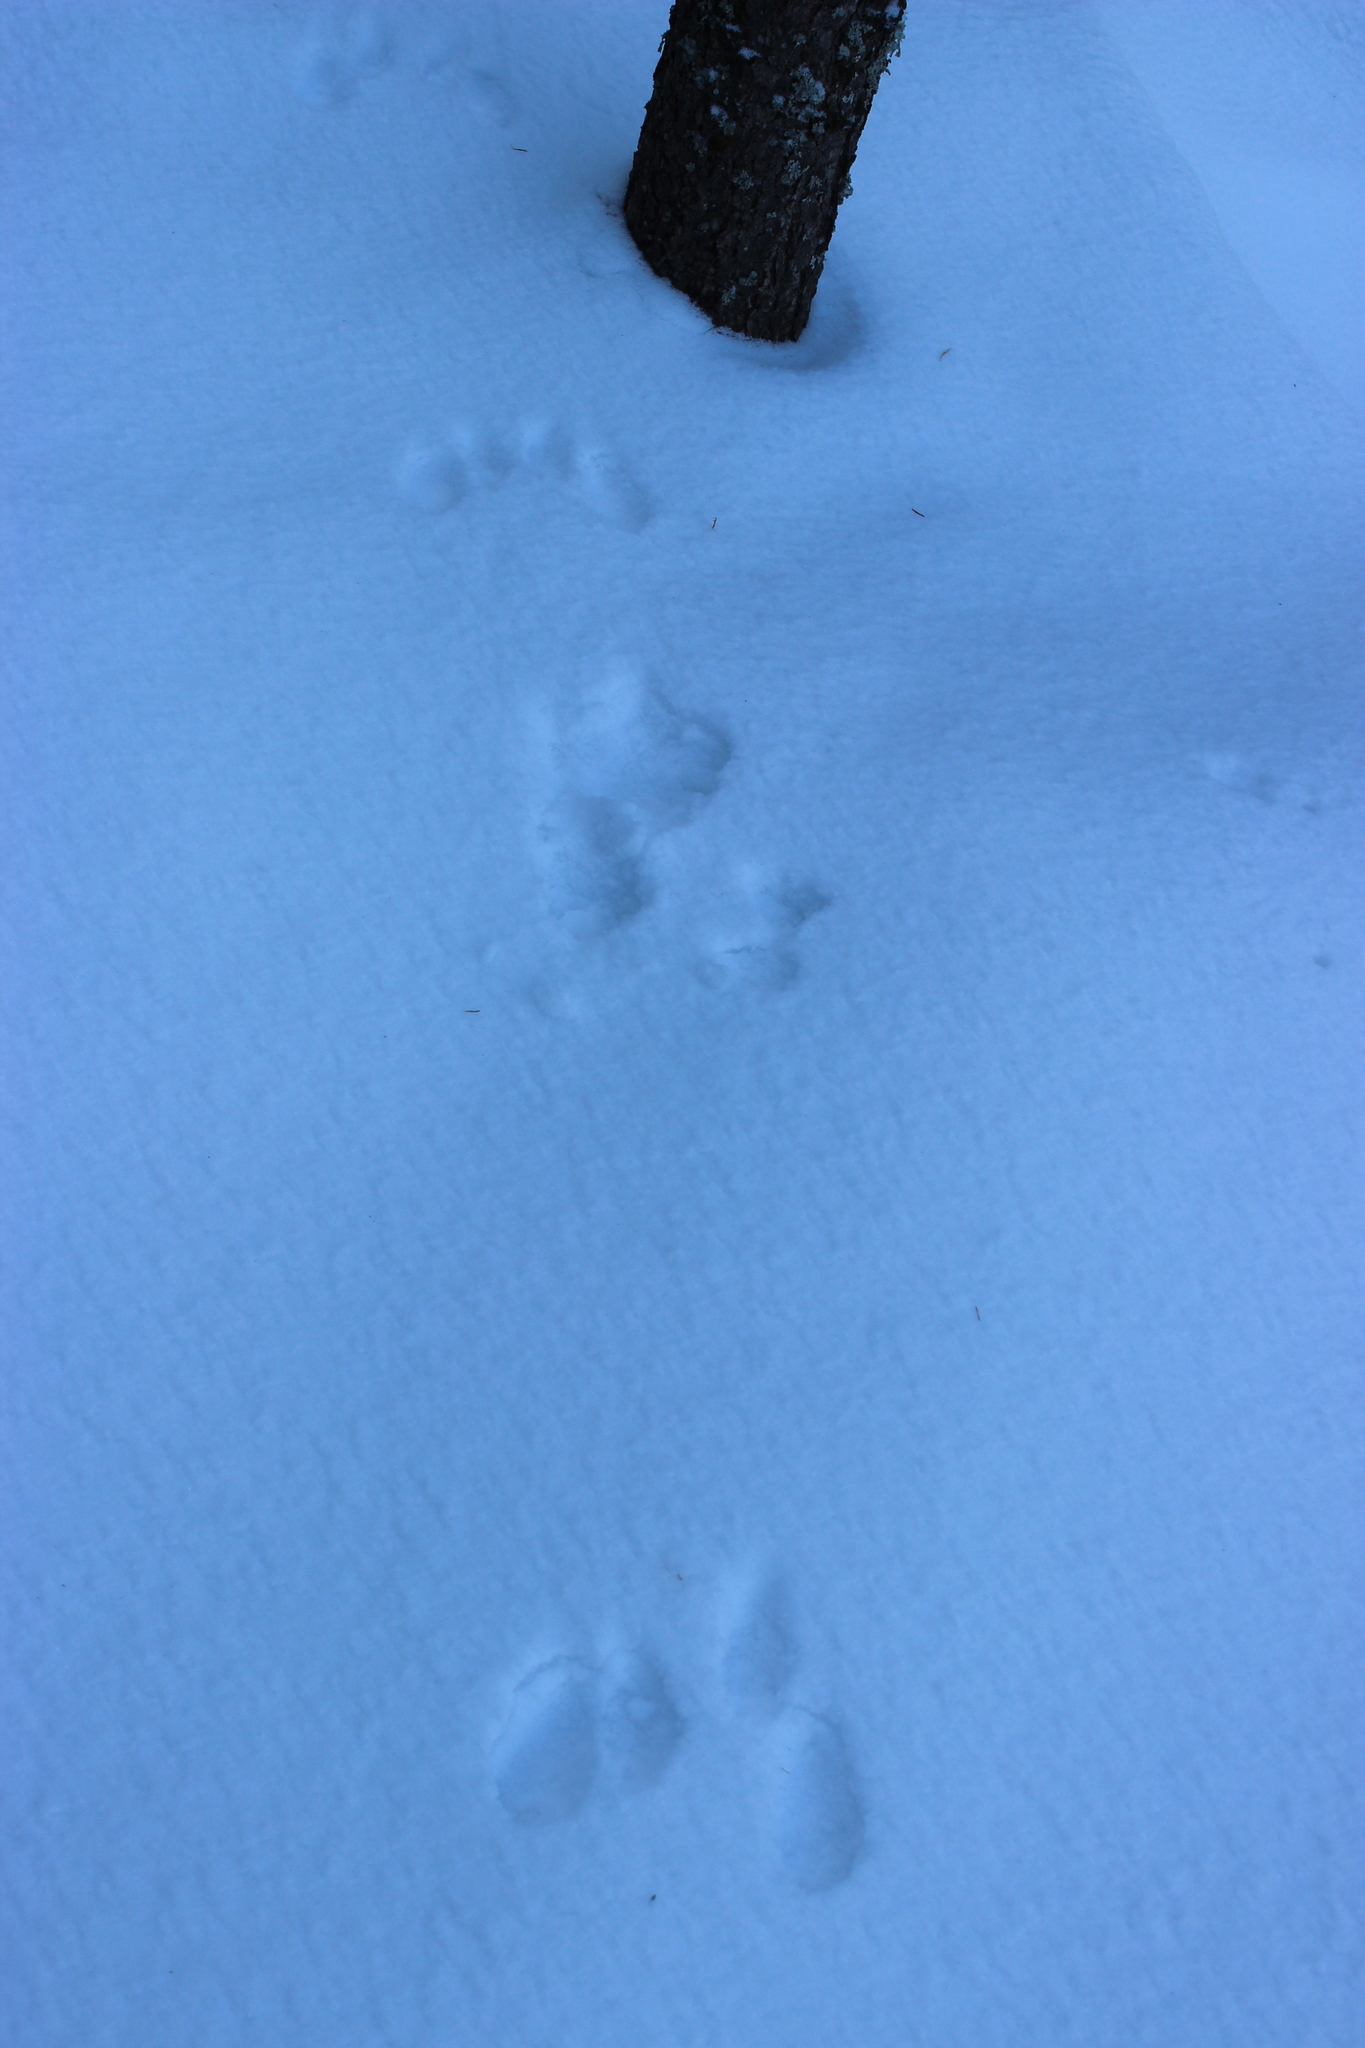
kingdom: Animalia
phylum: Chordata
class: Mammalia
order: Rodentia
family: Sciuridae
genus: Sciurus
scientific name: Sciurus vulgaris
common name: Eurasian red squirrel
